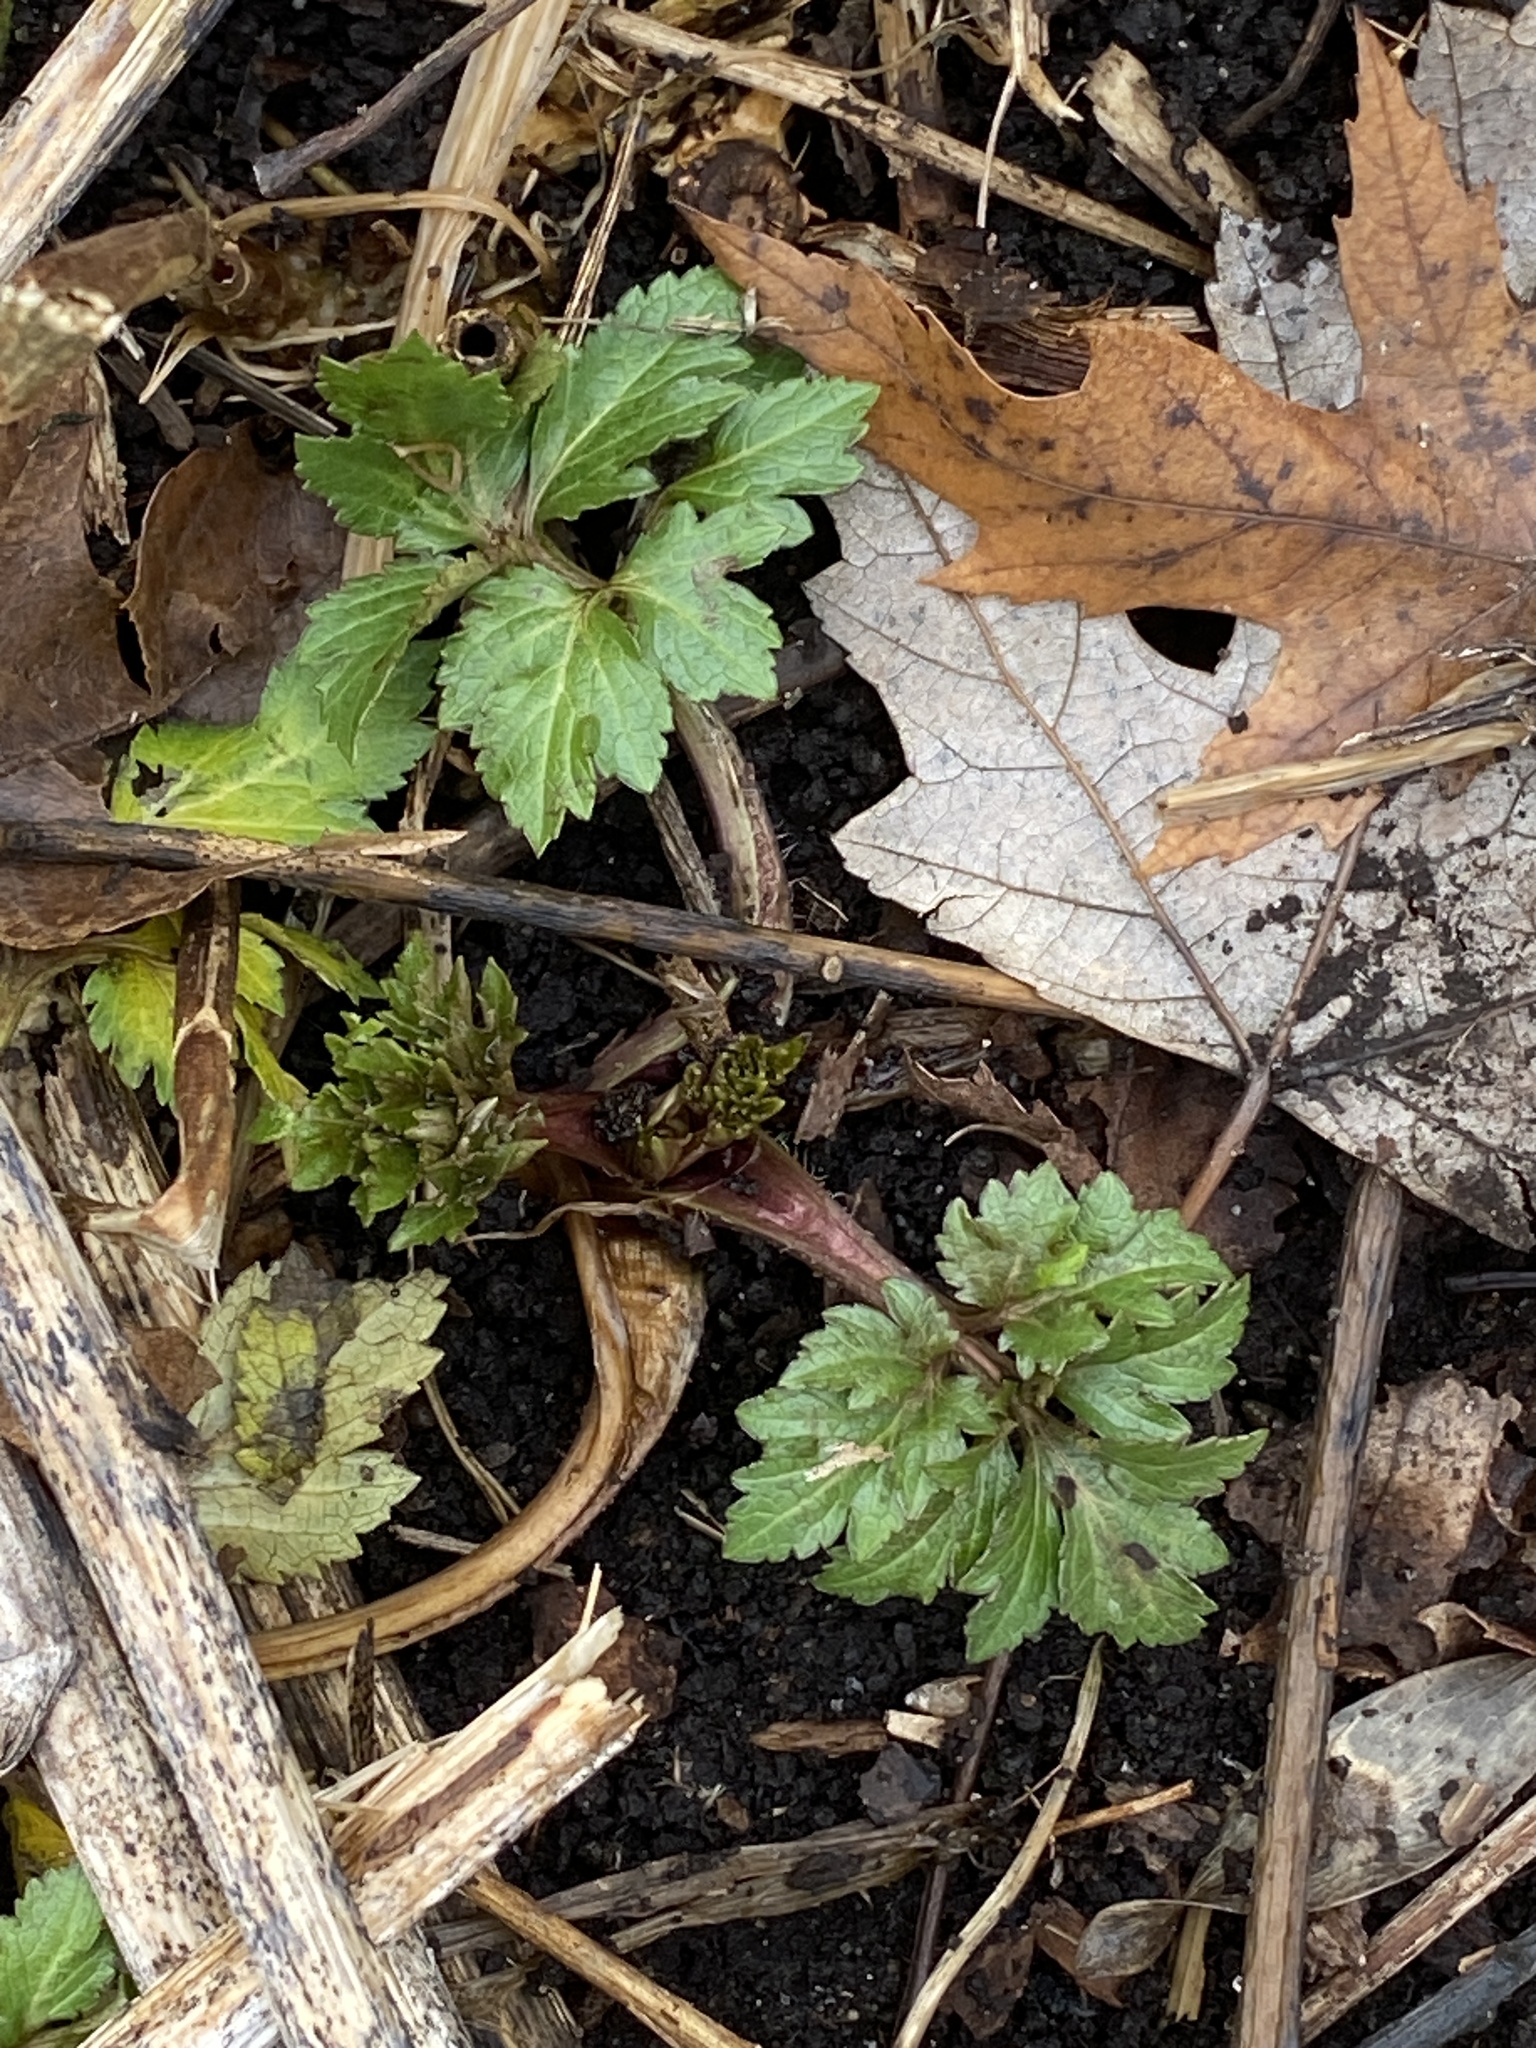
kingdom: Plantae
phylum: Tracheophyta
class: Magnoliopsida
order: Asterales
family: Asteraceae
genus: Rudbeckia
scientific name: Rudbeckia laciniata
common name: Coneflower
